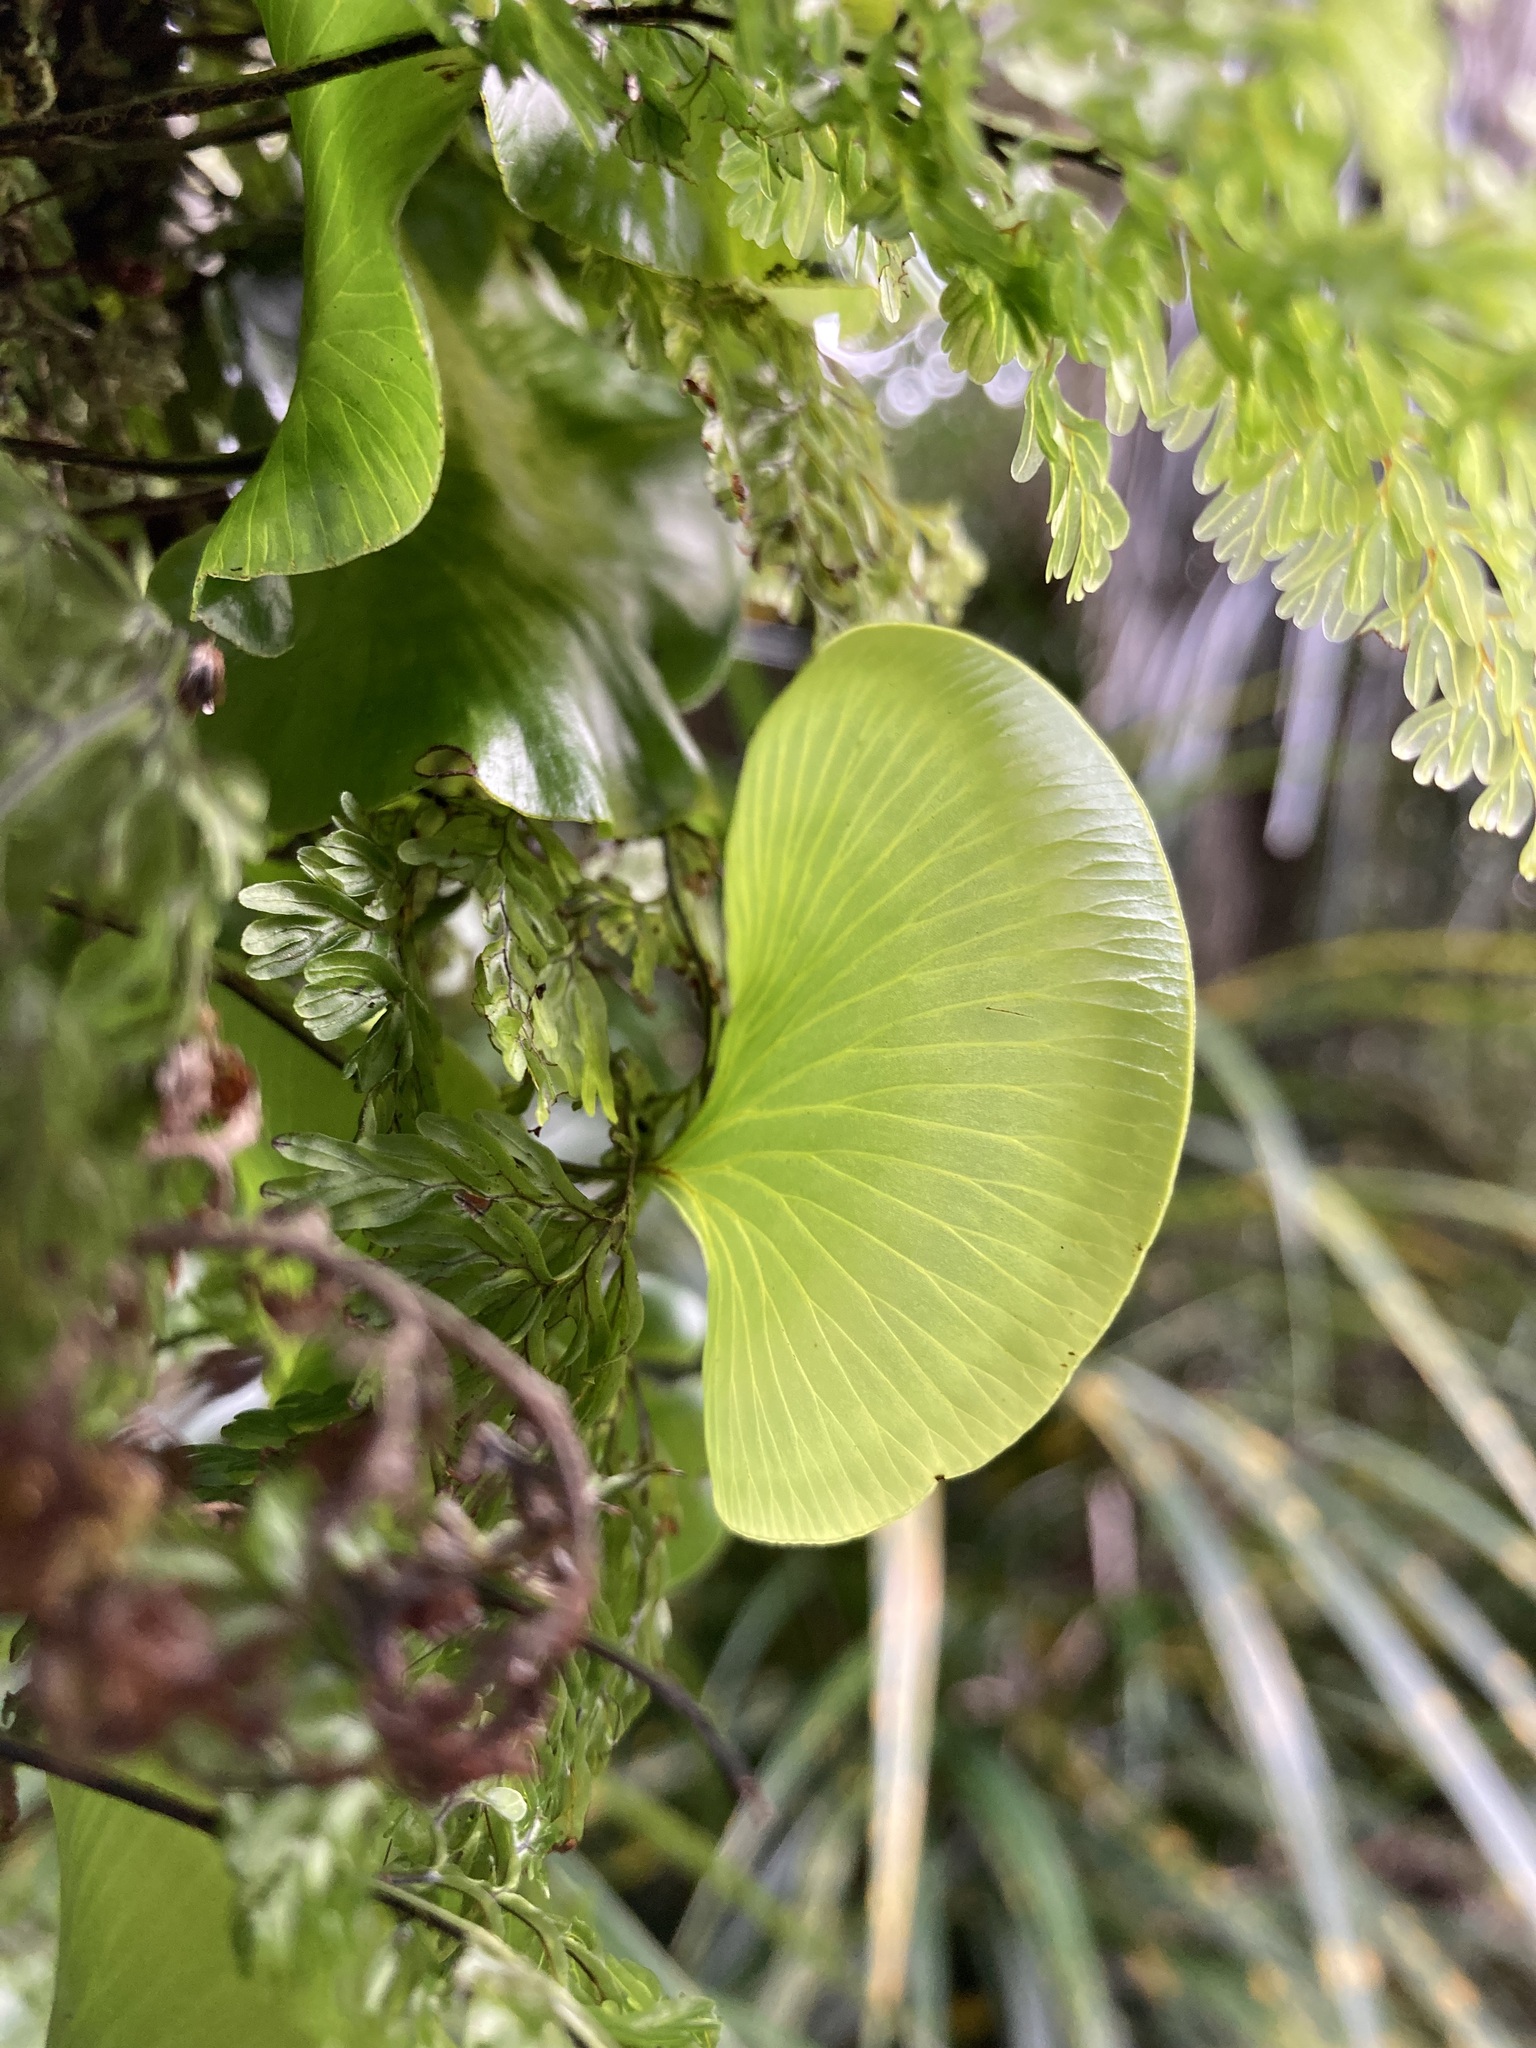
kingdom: Plantae
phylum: Tracheophyta
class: Polypodiopsida
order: Hymenophyllales
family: Hymenophyllaceae
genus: Hymenophyllum
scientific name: Hymenophyllum nephrophyllum
